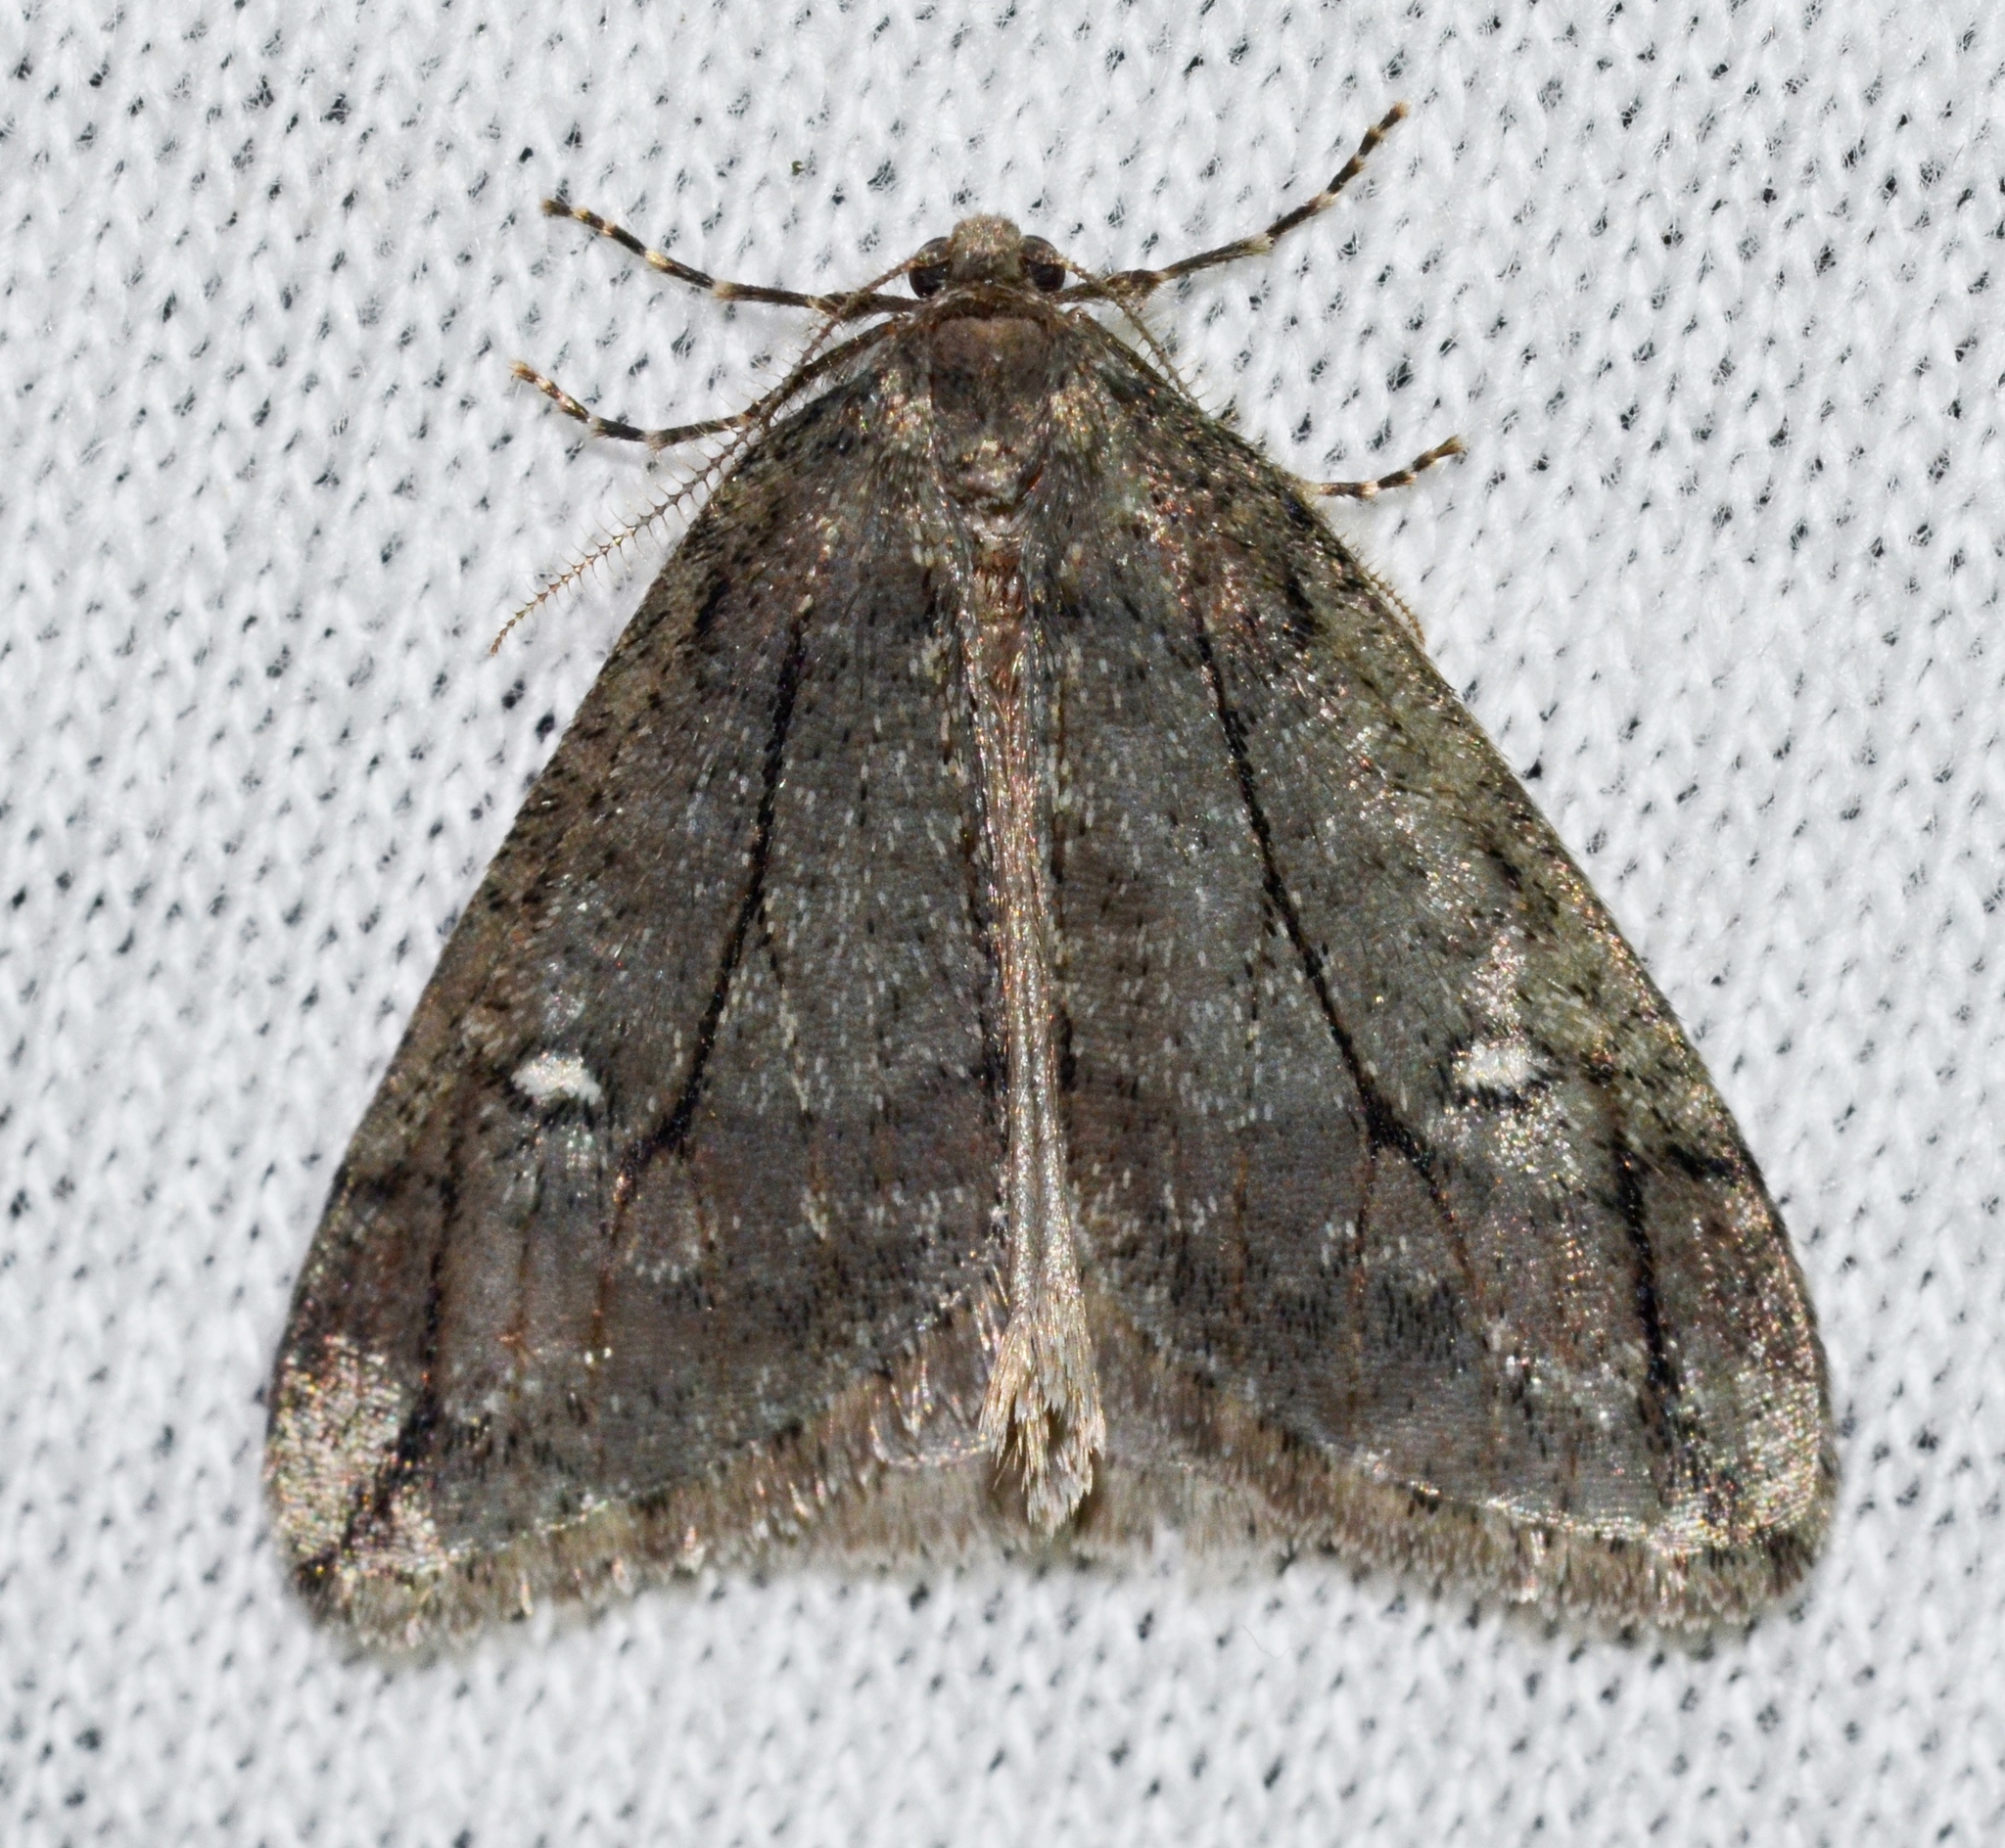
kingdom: Animalia
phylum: Arthropoda
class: Insecta
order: Lepidoptera
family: Geometridae
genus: Paleacrita
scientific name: Paleacrita merriccata
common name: White-spotted canker worm
